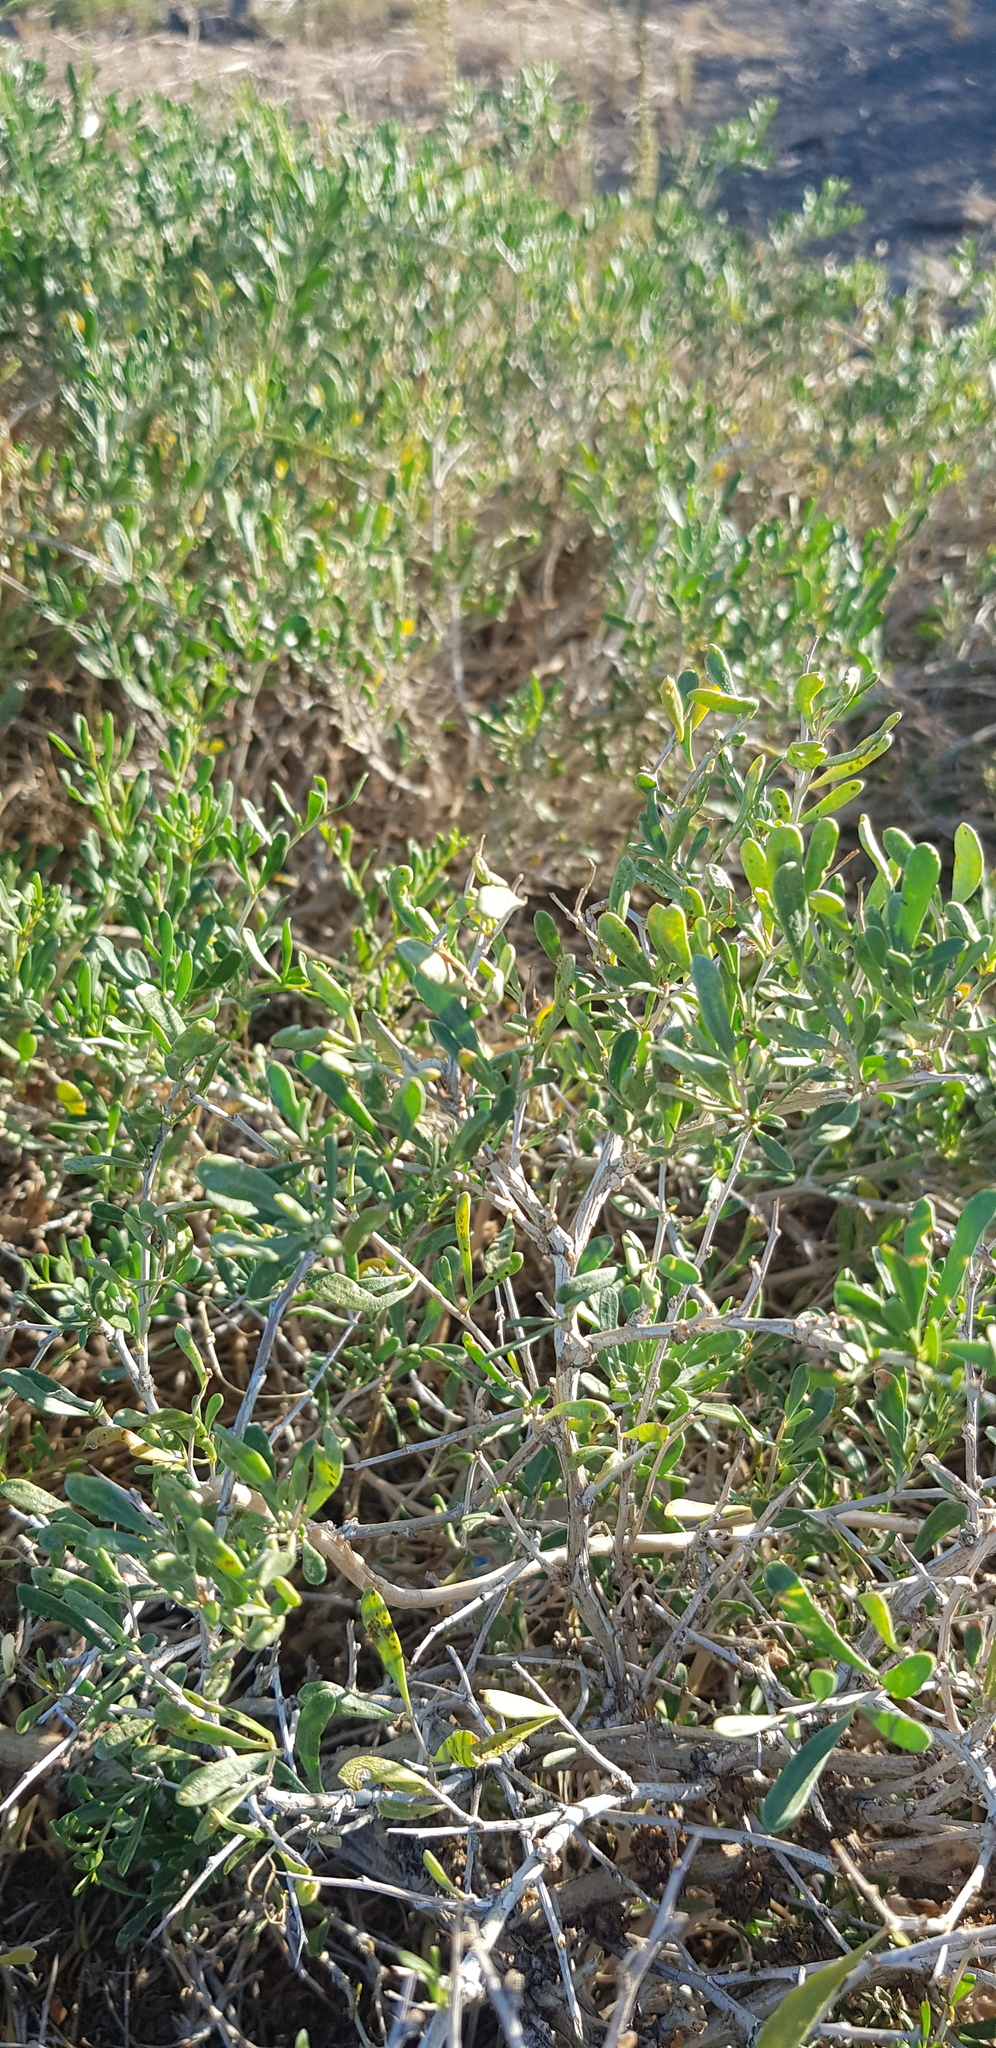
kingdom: Plantae
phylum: Tracheophyta
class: Magnoliopsida
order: Sapindales
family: Nitrariaceae
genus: Nitraria
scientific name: Nitraria sibirica
